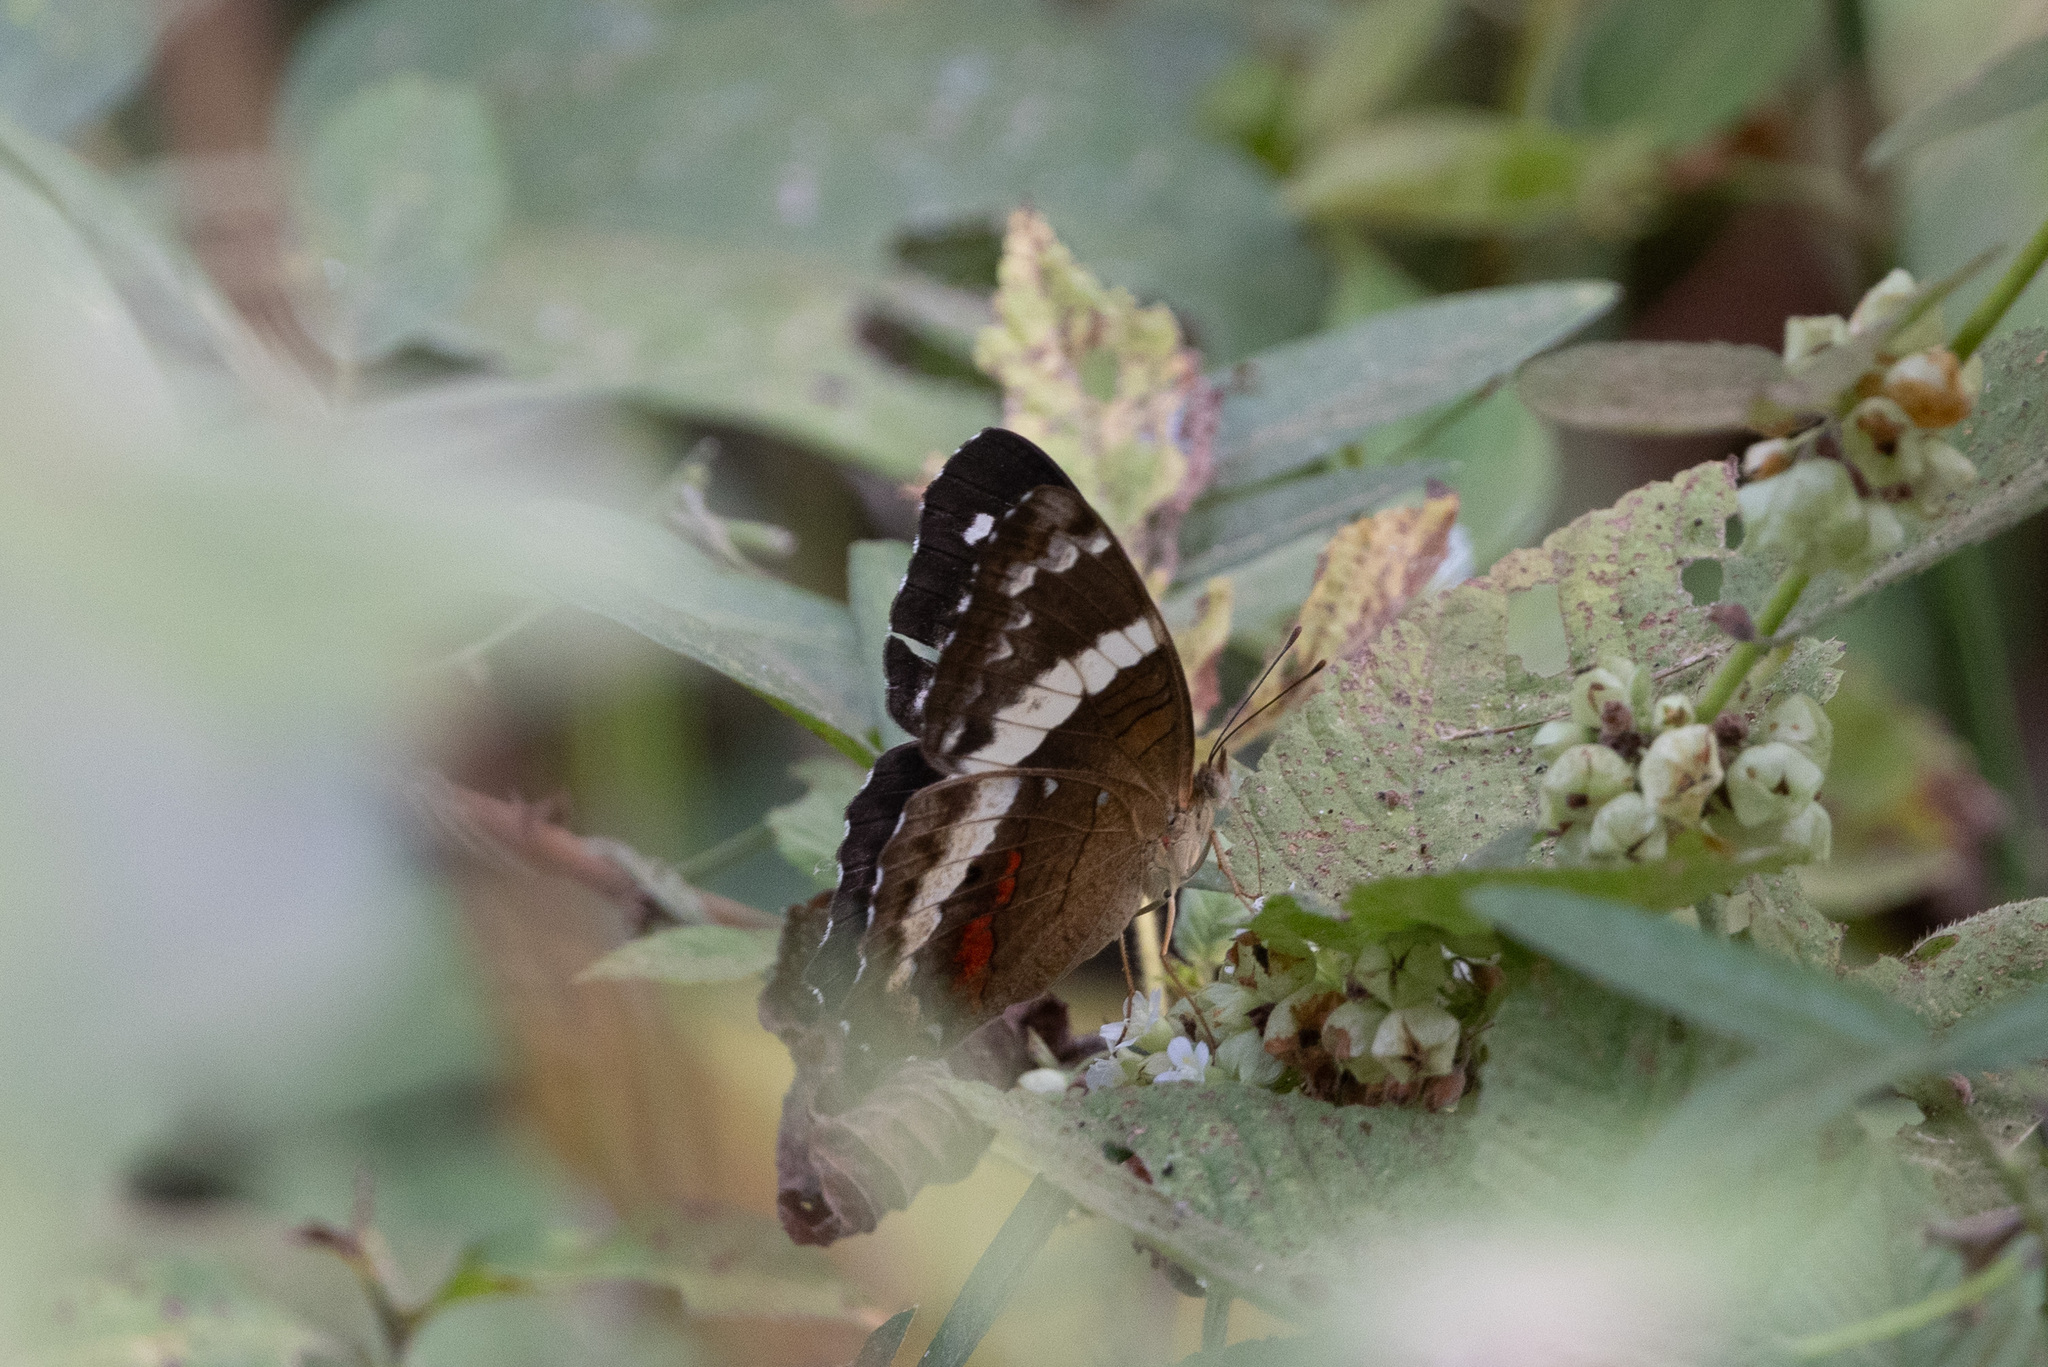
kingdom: Animalia
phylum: Arthropoda
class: Insecta
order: Lepidoptera
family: Nymphalidae
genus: Anartia
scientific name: Anartia fatima
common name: Banded peacock
